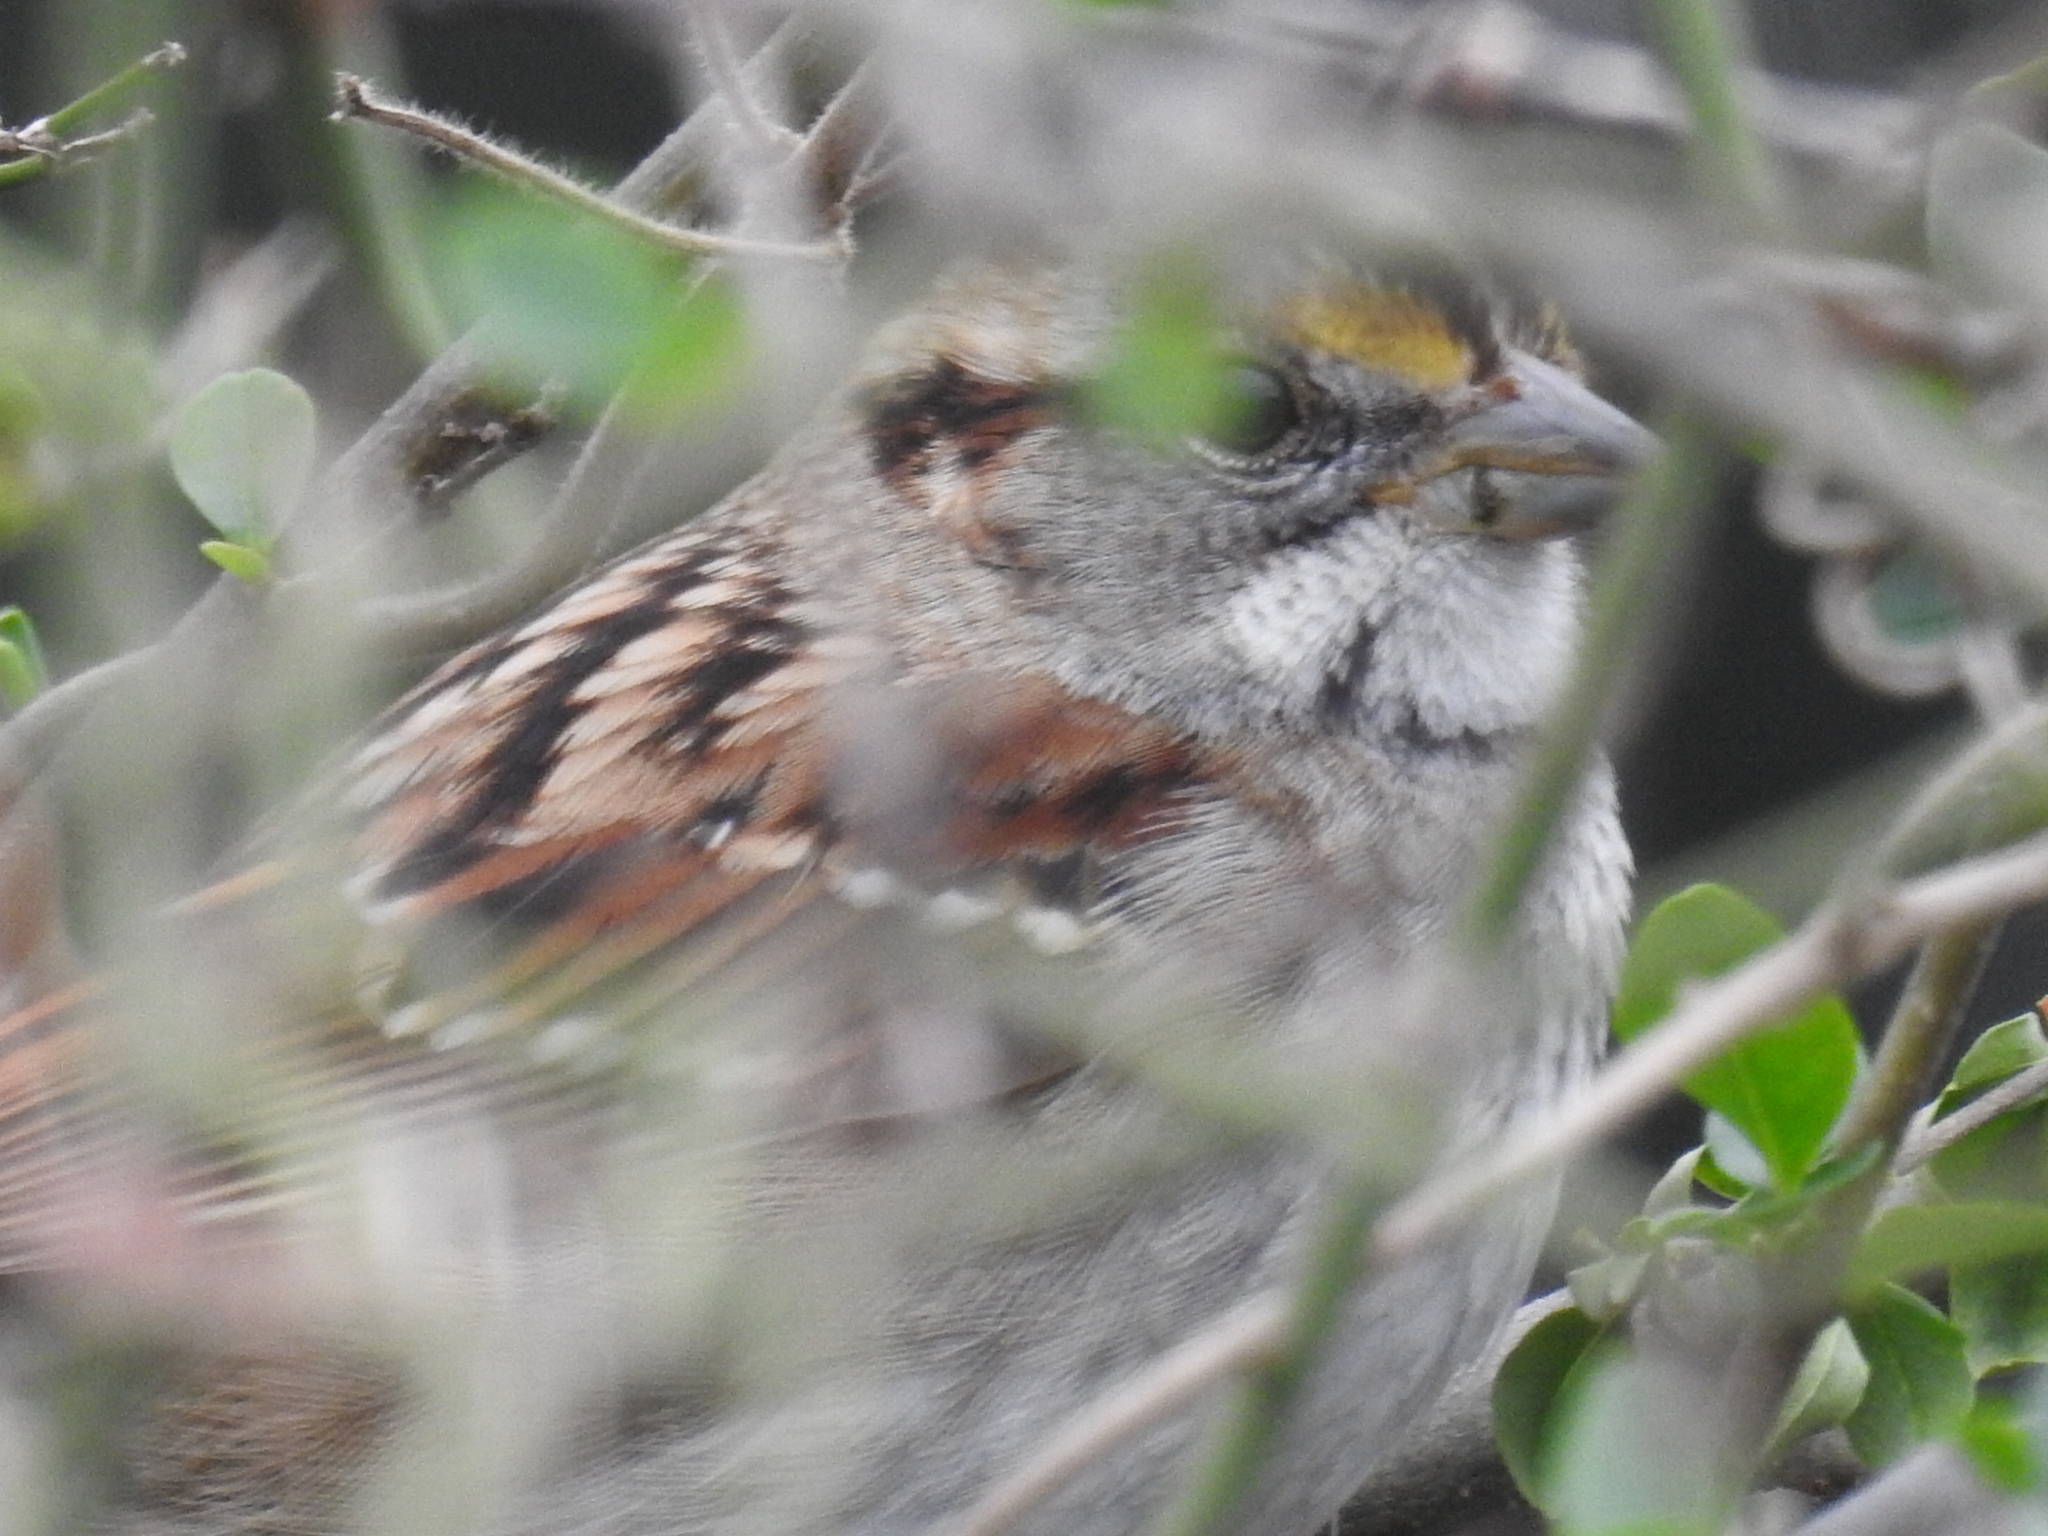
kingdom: Animalia
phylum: Chordata
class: Aves
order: Passeriformes
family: Passerellidae
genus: Zonotrichia
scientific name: Zonotrichia albicollis
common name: White-throated sparrow
